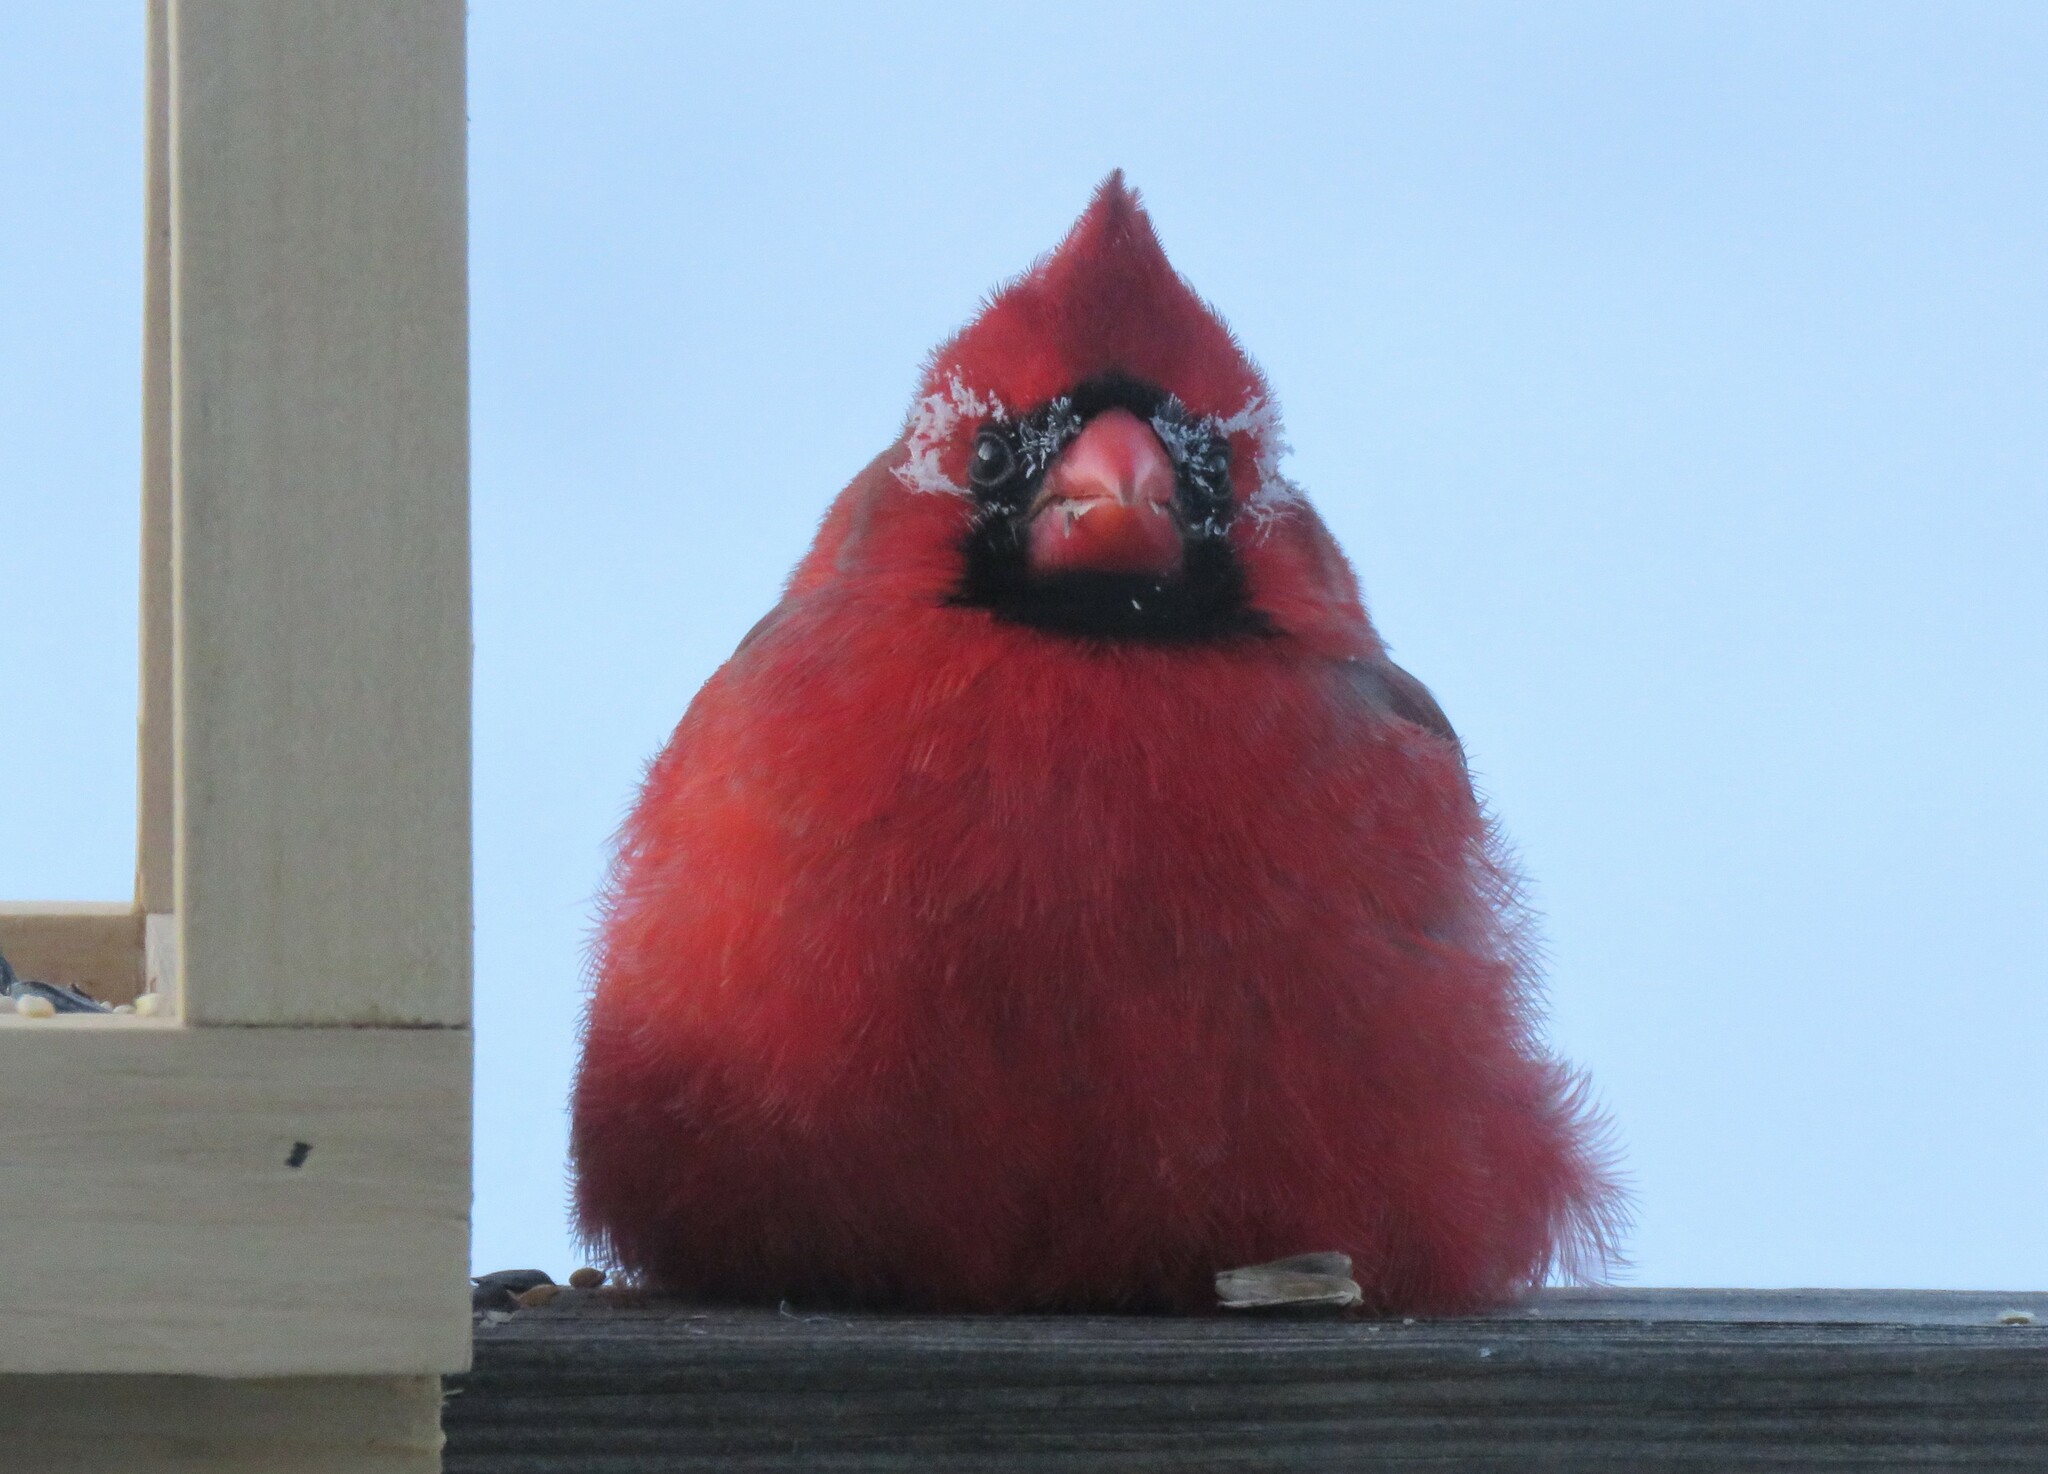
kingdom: Animalia
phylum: Chordata
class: Aves
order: Passeriformes
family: Cardinalidae
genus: Cardinalis
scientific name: Cardinalis cardinalis
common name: Northern cardinal
